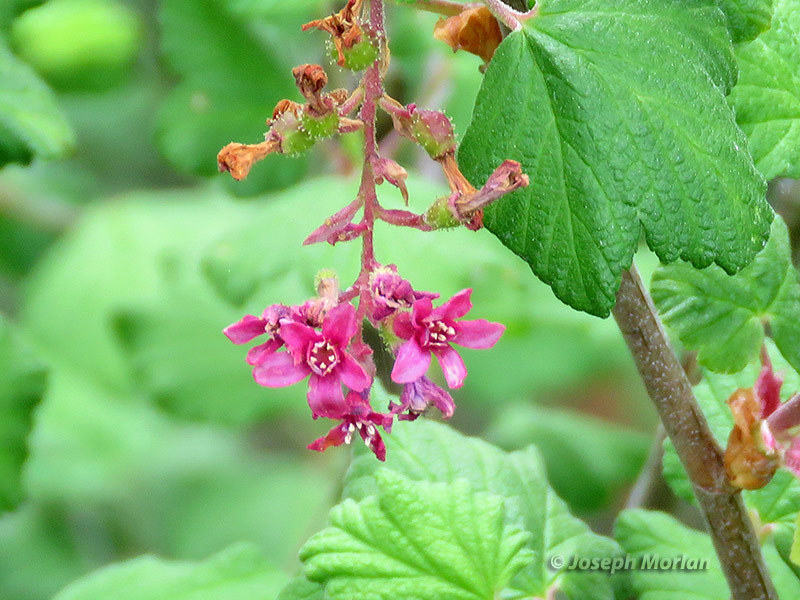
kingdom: Plantae
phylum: Tracheophyta
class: Magnoliopsida
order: Saxifragales
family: Grossulariaceae
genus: Ribes
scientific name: Ribes sanguineum
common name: Flowering currant
